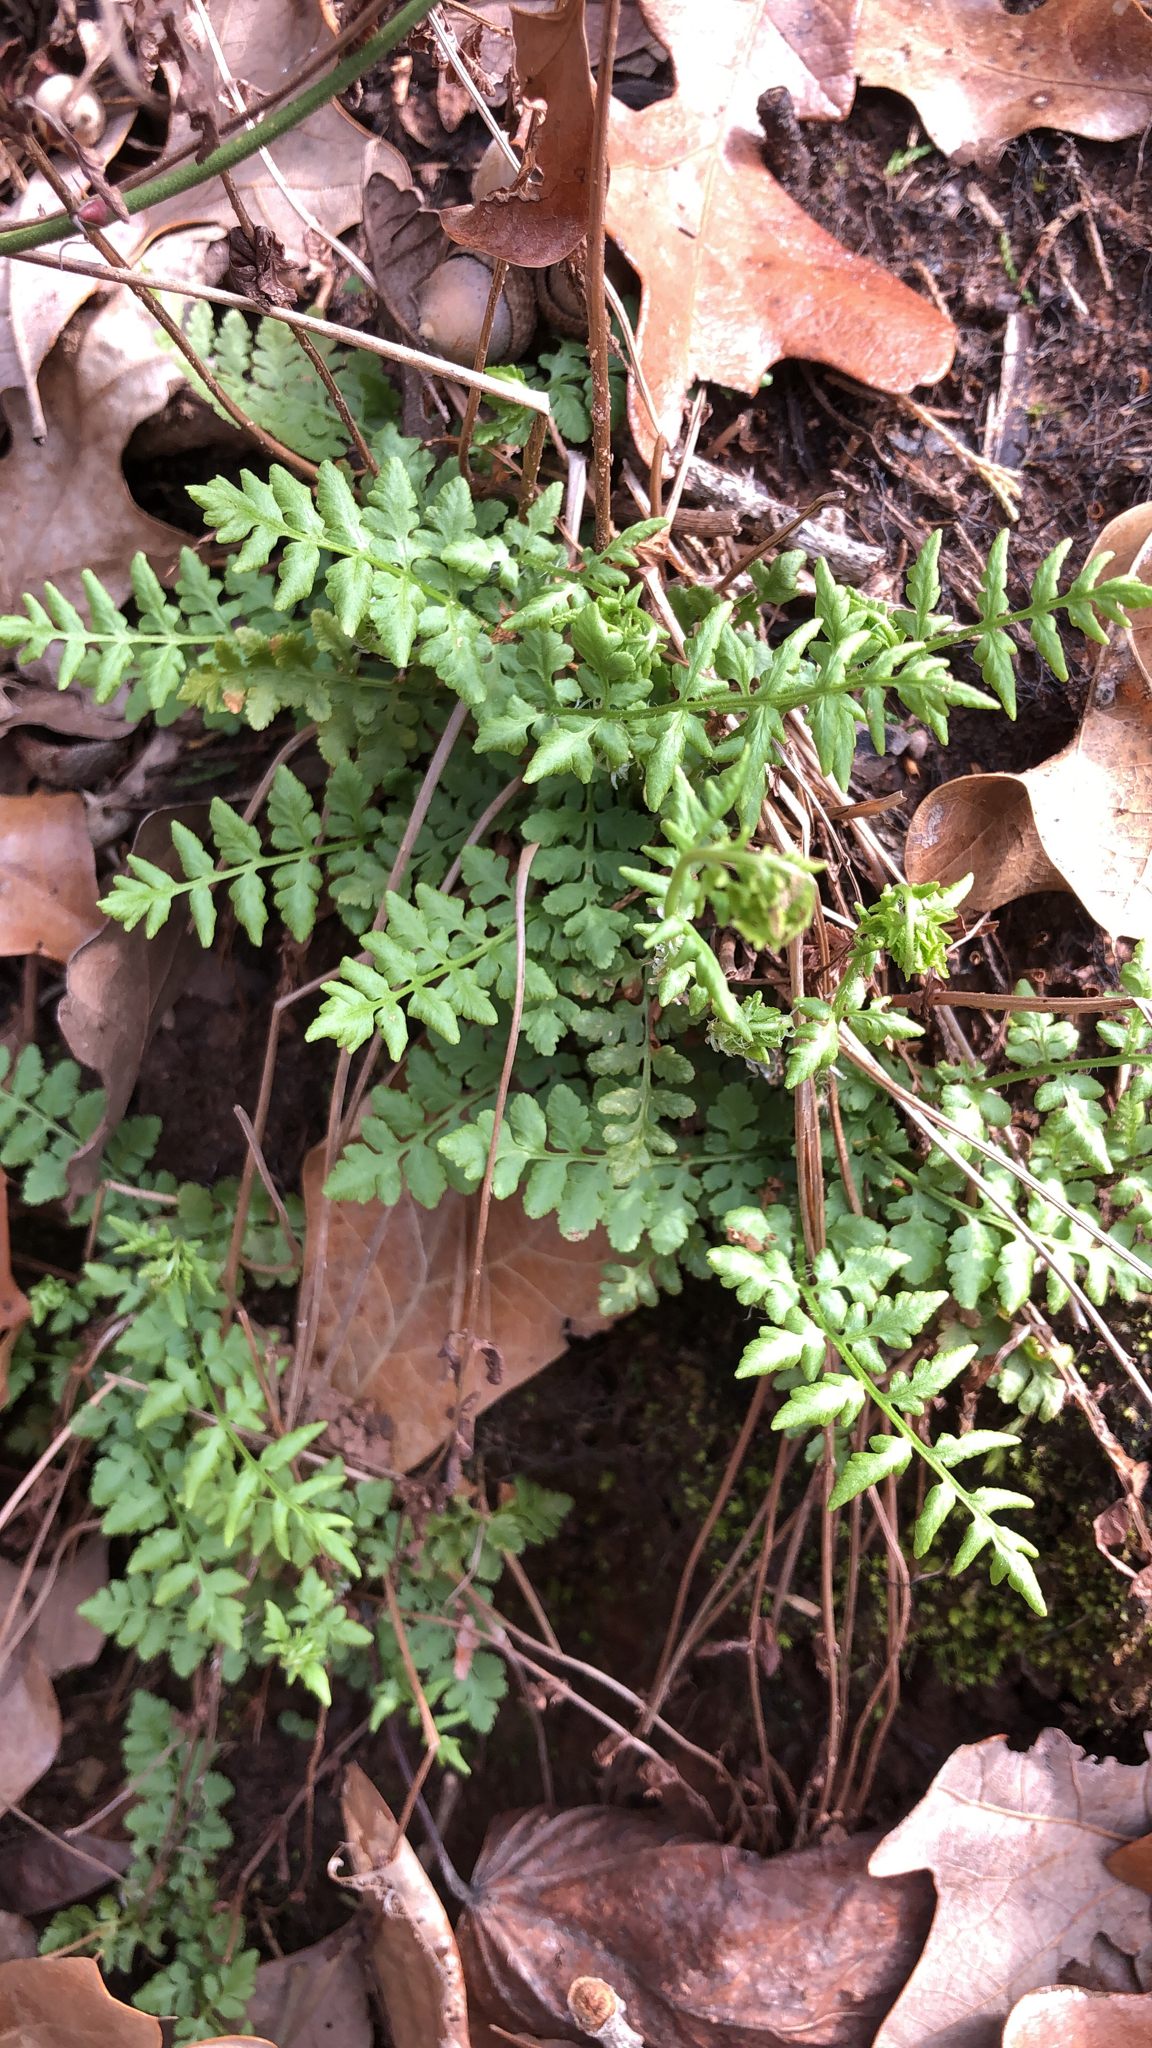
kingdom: Plantae
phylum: Tracheophyta
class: Polypodiopsida
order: Polypodiales
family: Woodsiaceae
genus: Physematium
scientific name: Physematium obtusum
